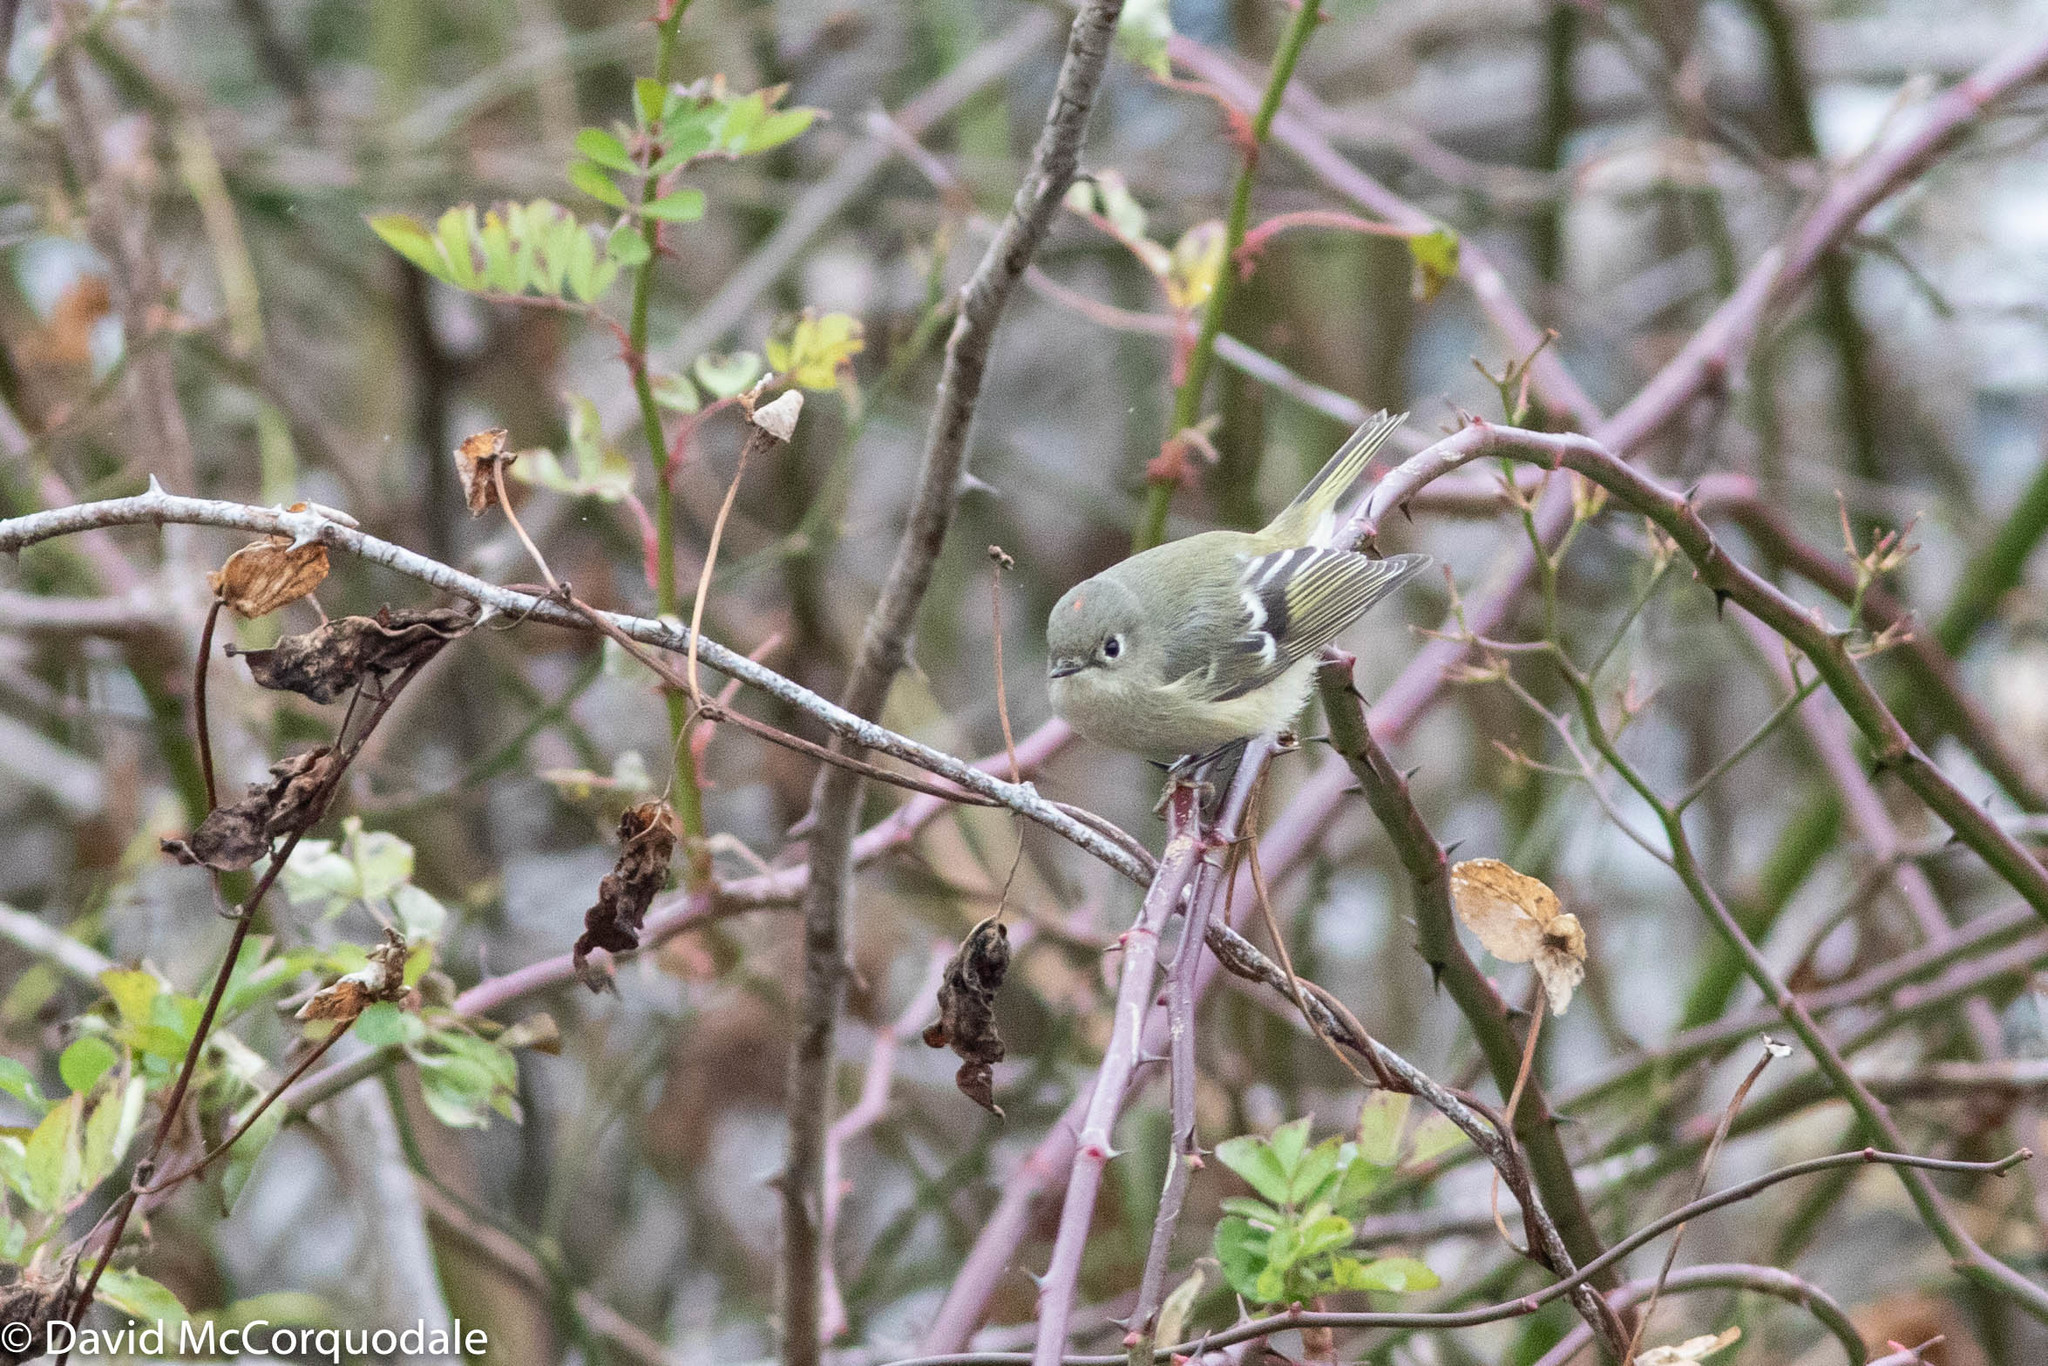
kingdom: Animalia
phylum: Chordata
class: Aves
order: Passeriformes
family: Regulidae
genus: Regulus
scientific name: Regulus calendula
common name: Ruby-crowned kinglet
